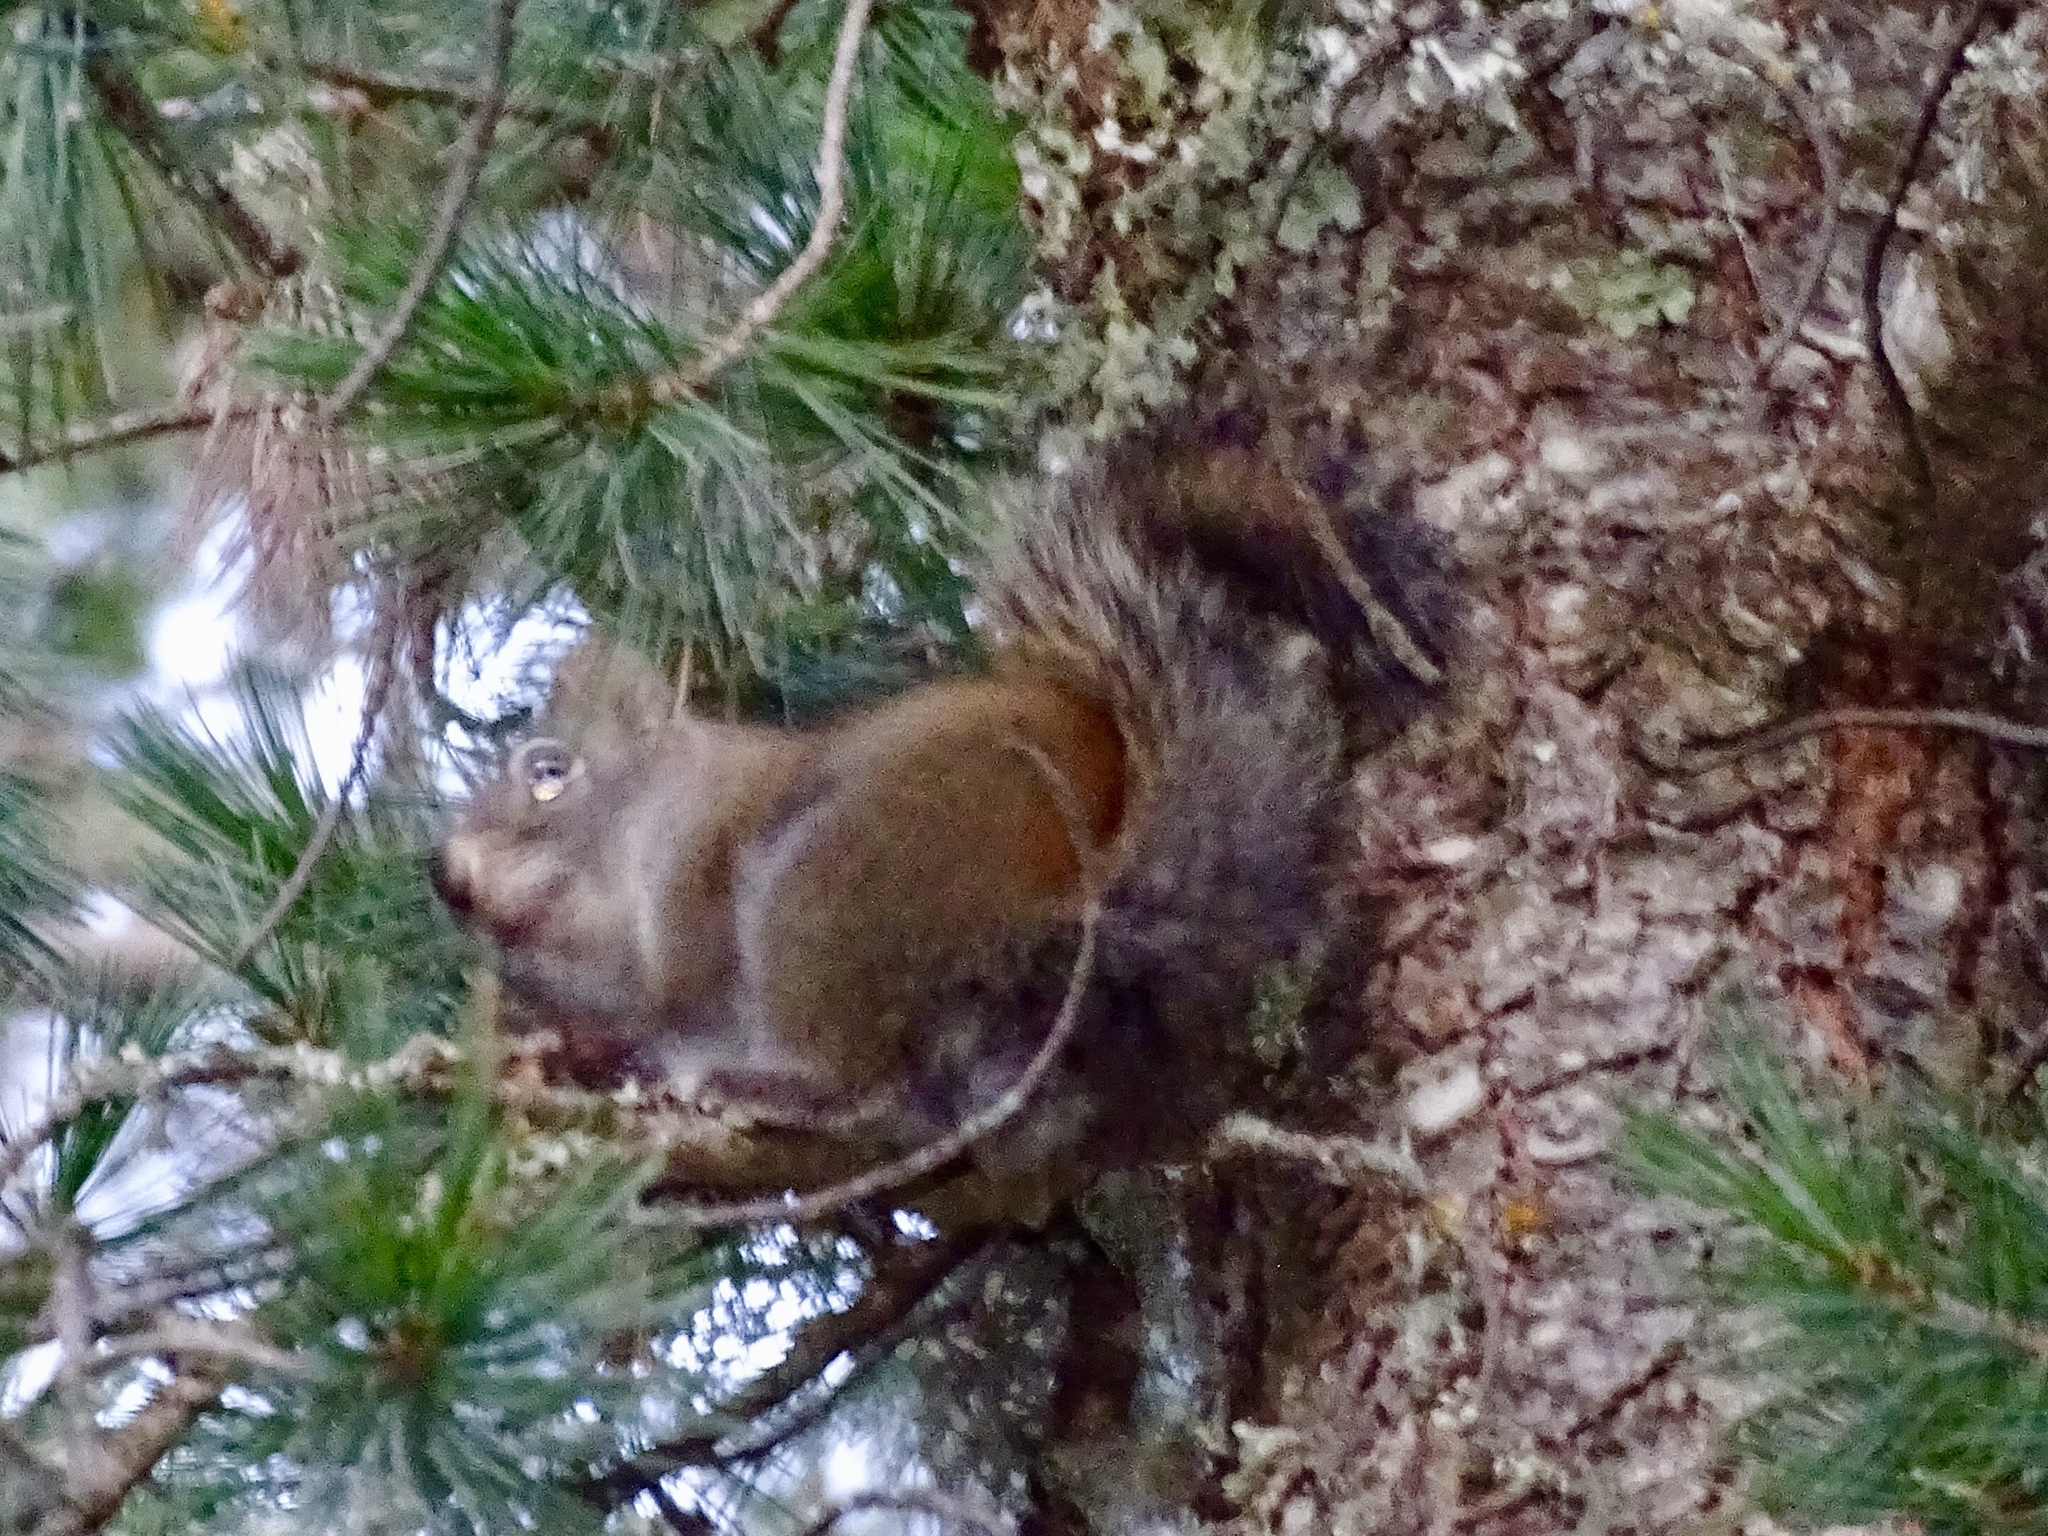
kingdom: Animalia
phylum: Chordata
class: Mammalia
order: Rodentia
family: Sciuridae
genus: Tamiasciurus
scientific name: Tamiasciurus hudsonicus
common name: Red squirrel
